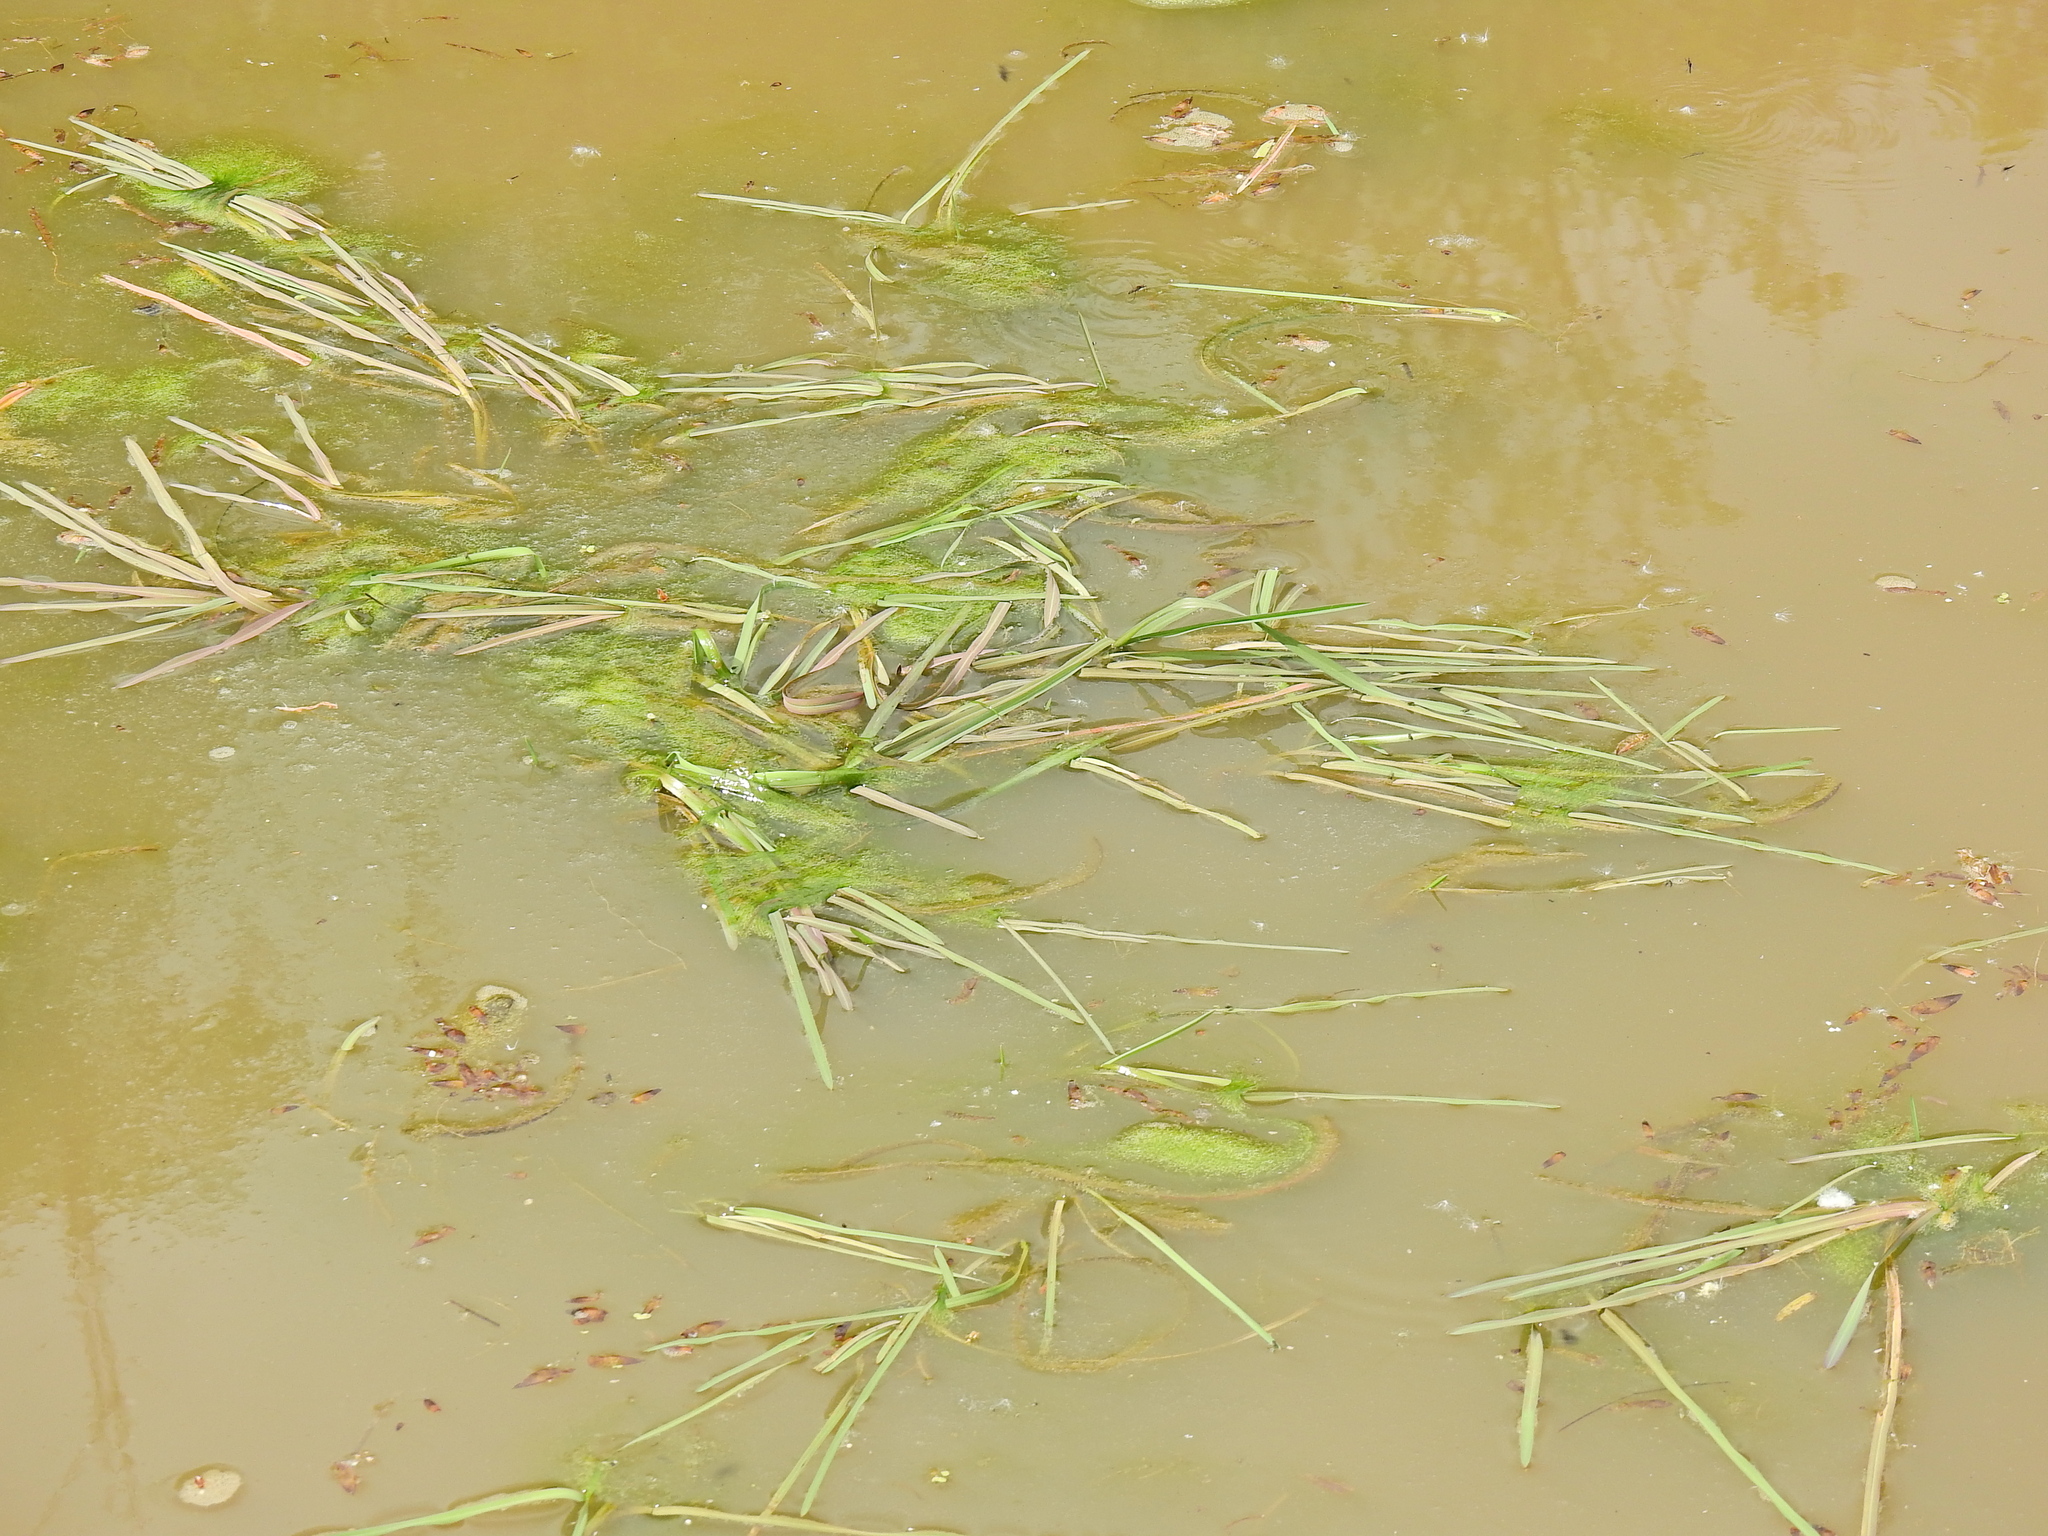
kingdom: Plantae
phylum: Tracheophyta
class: Liliopsida
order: Poales
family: Poaceae
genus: Glyceria
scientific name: Glyceria fluitans
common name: Floating sweet-grass
